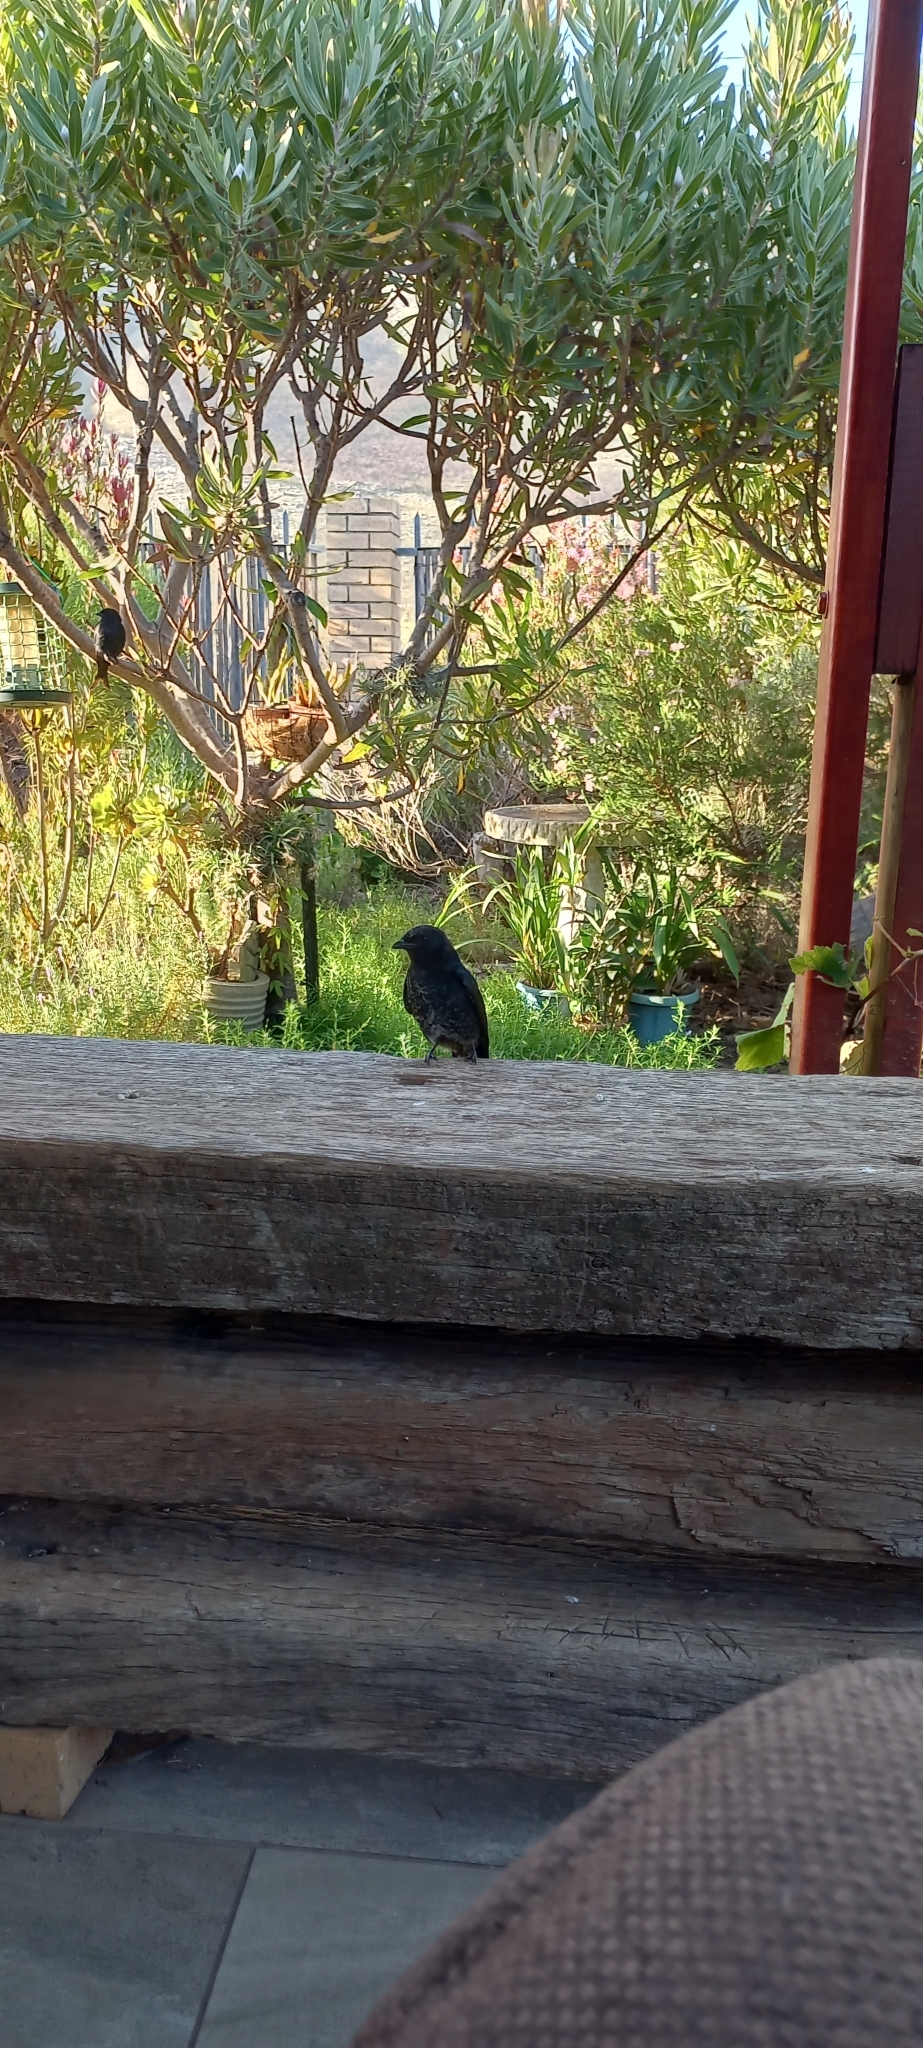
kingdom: Animalia
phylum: Chordata
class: Aves
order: Passeriformes
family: Dicruridae
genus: Dicrurus
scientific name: Dicrurus adsimilis
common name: Fork-tailed drongo
